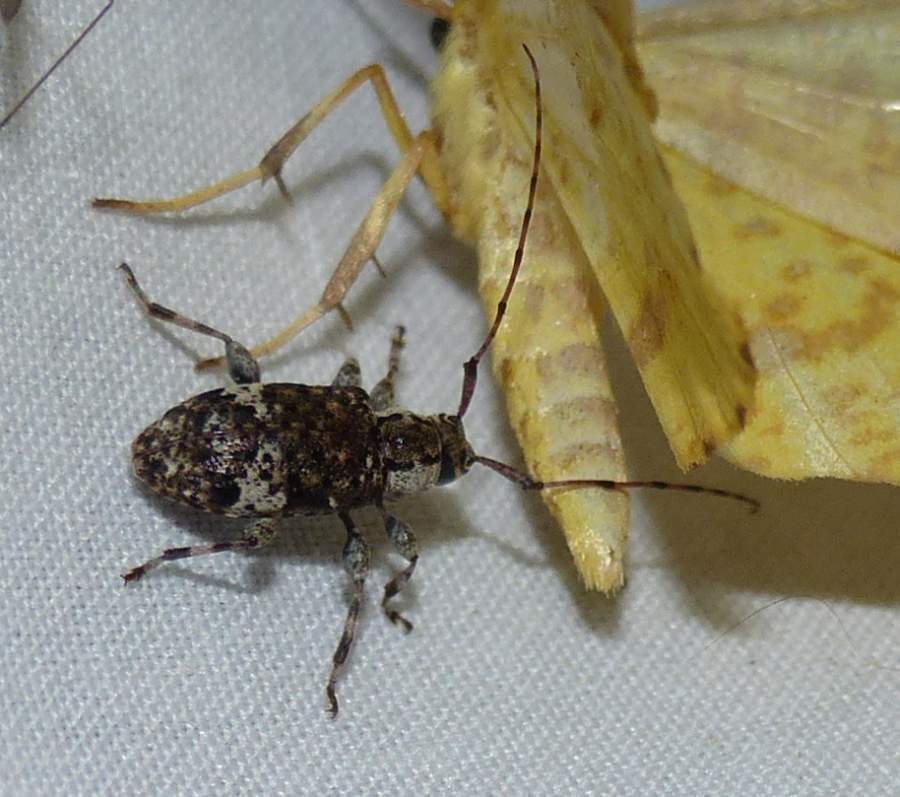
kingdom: Animalia
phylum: Arthropoda
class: Insecta
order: Coleoptera
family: Cerambycidae
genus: Astylopsis
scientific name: Astylopsis macula
